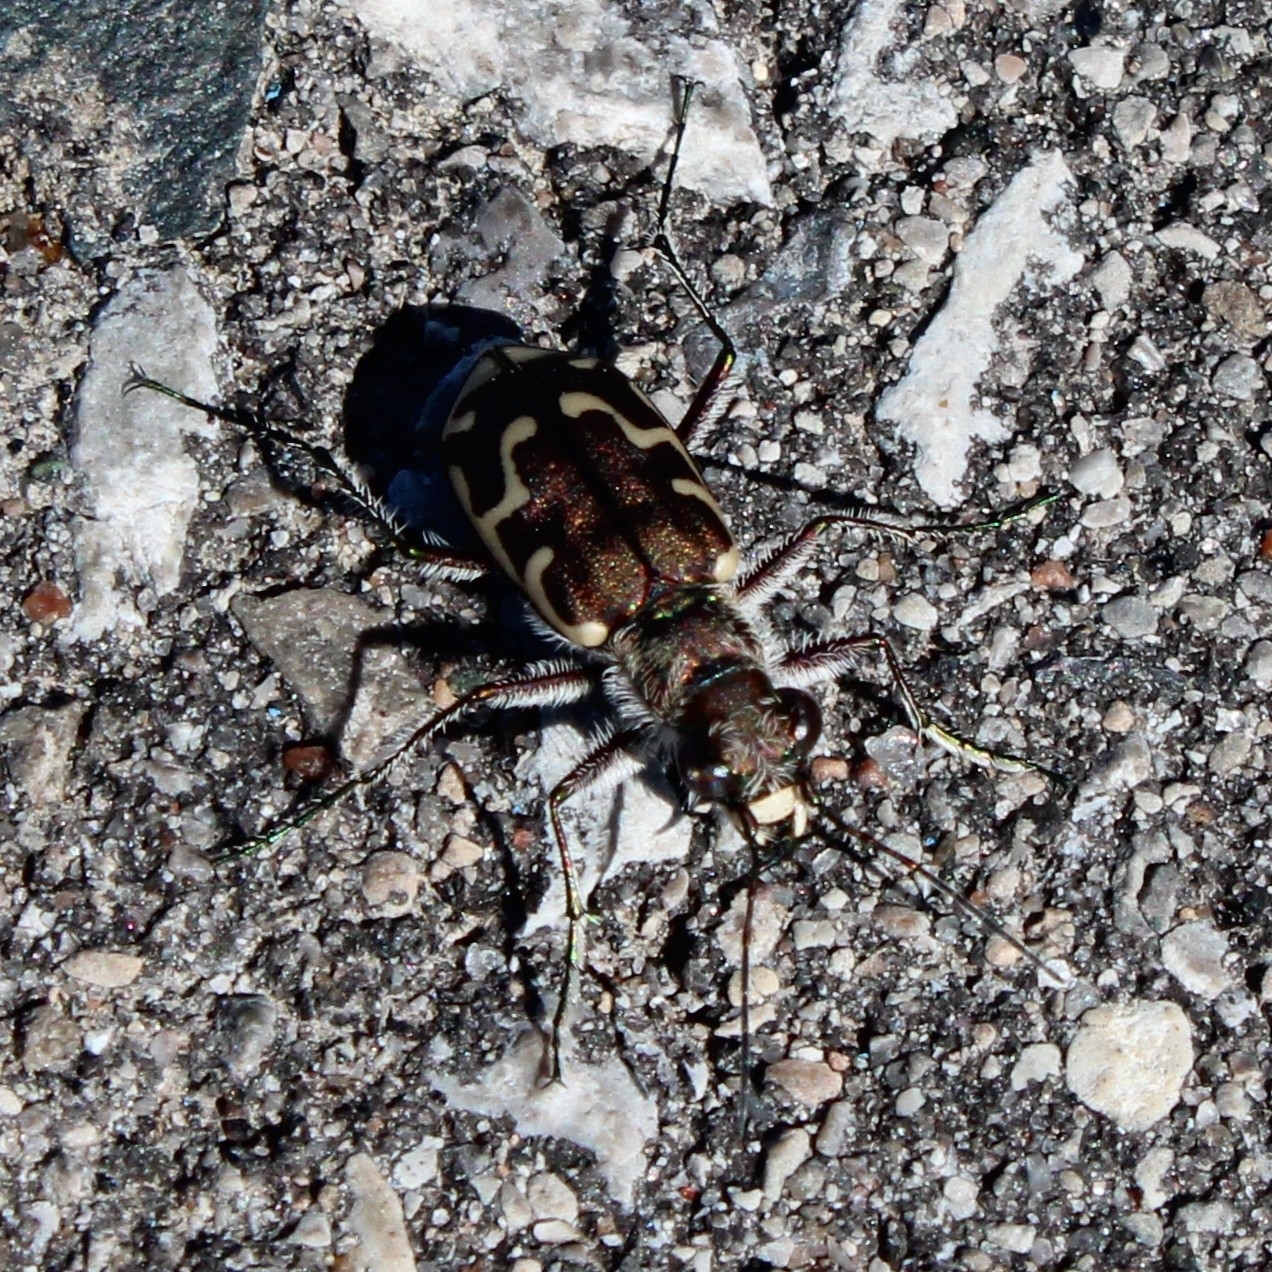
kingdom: Animalia
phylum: Arthropoda
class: Insecta
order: Coleoptera
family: Carabidae
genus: Cicindela
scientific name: Cicindela repanda
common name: Bronzed tiger beetle
